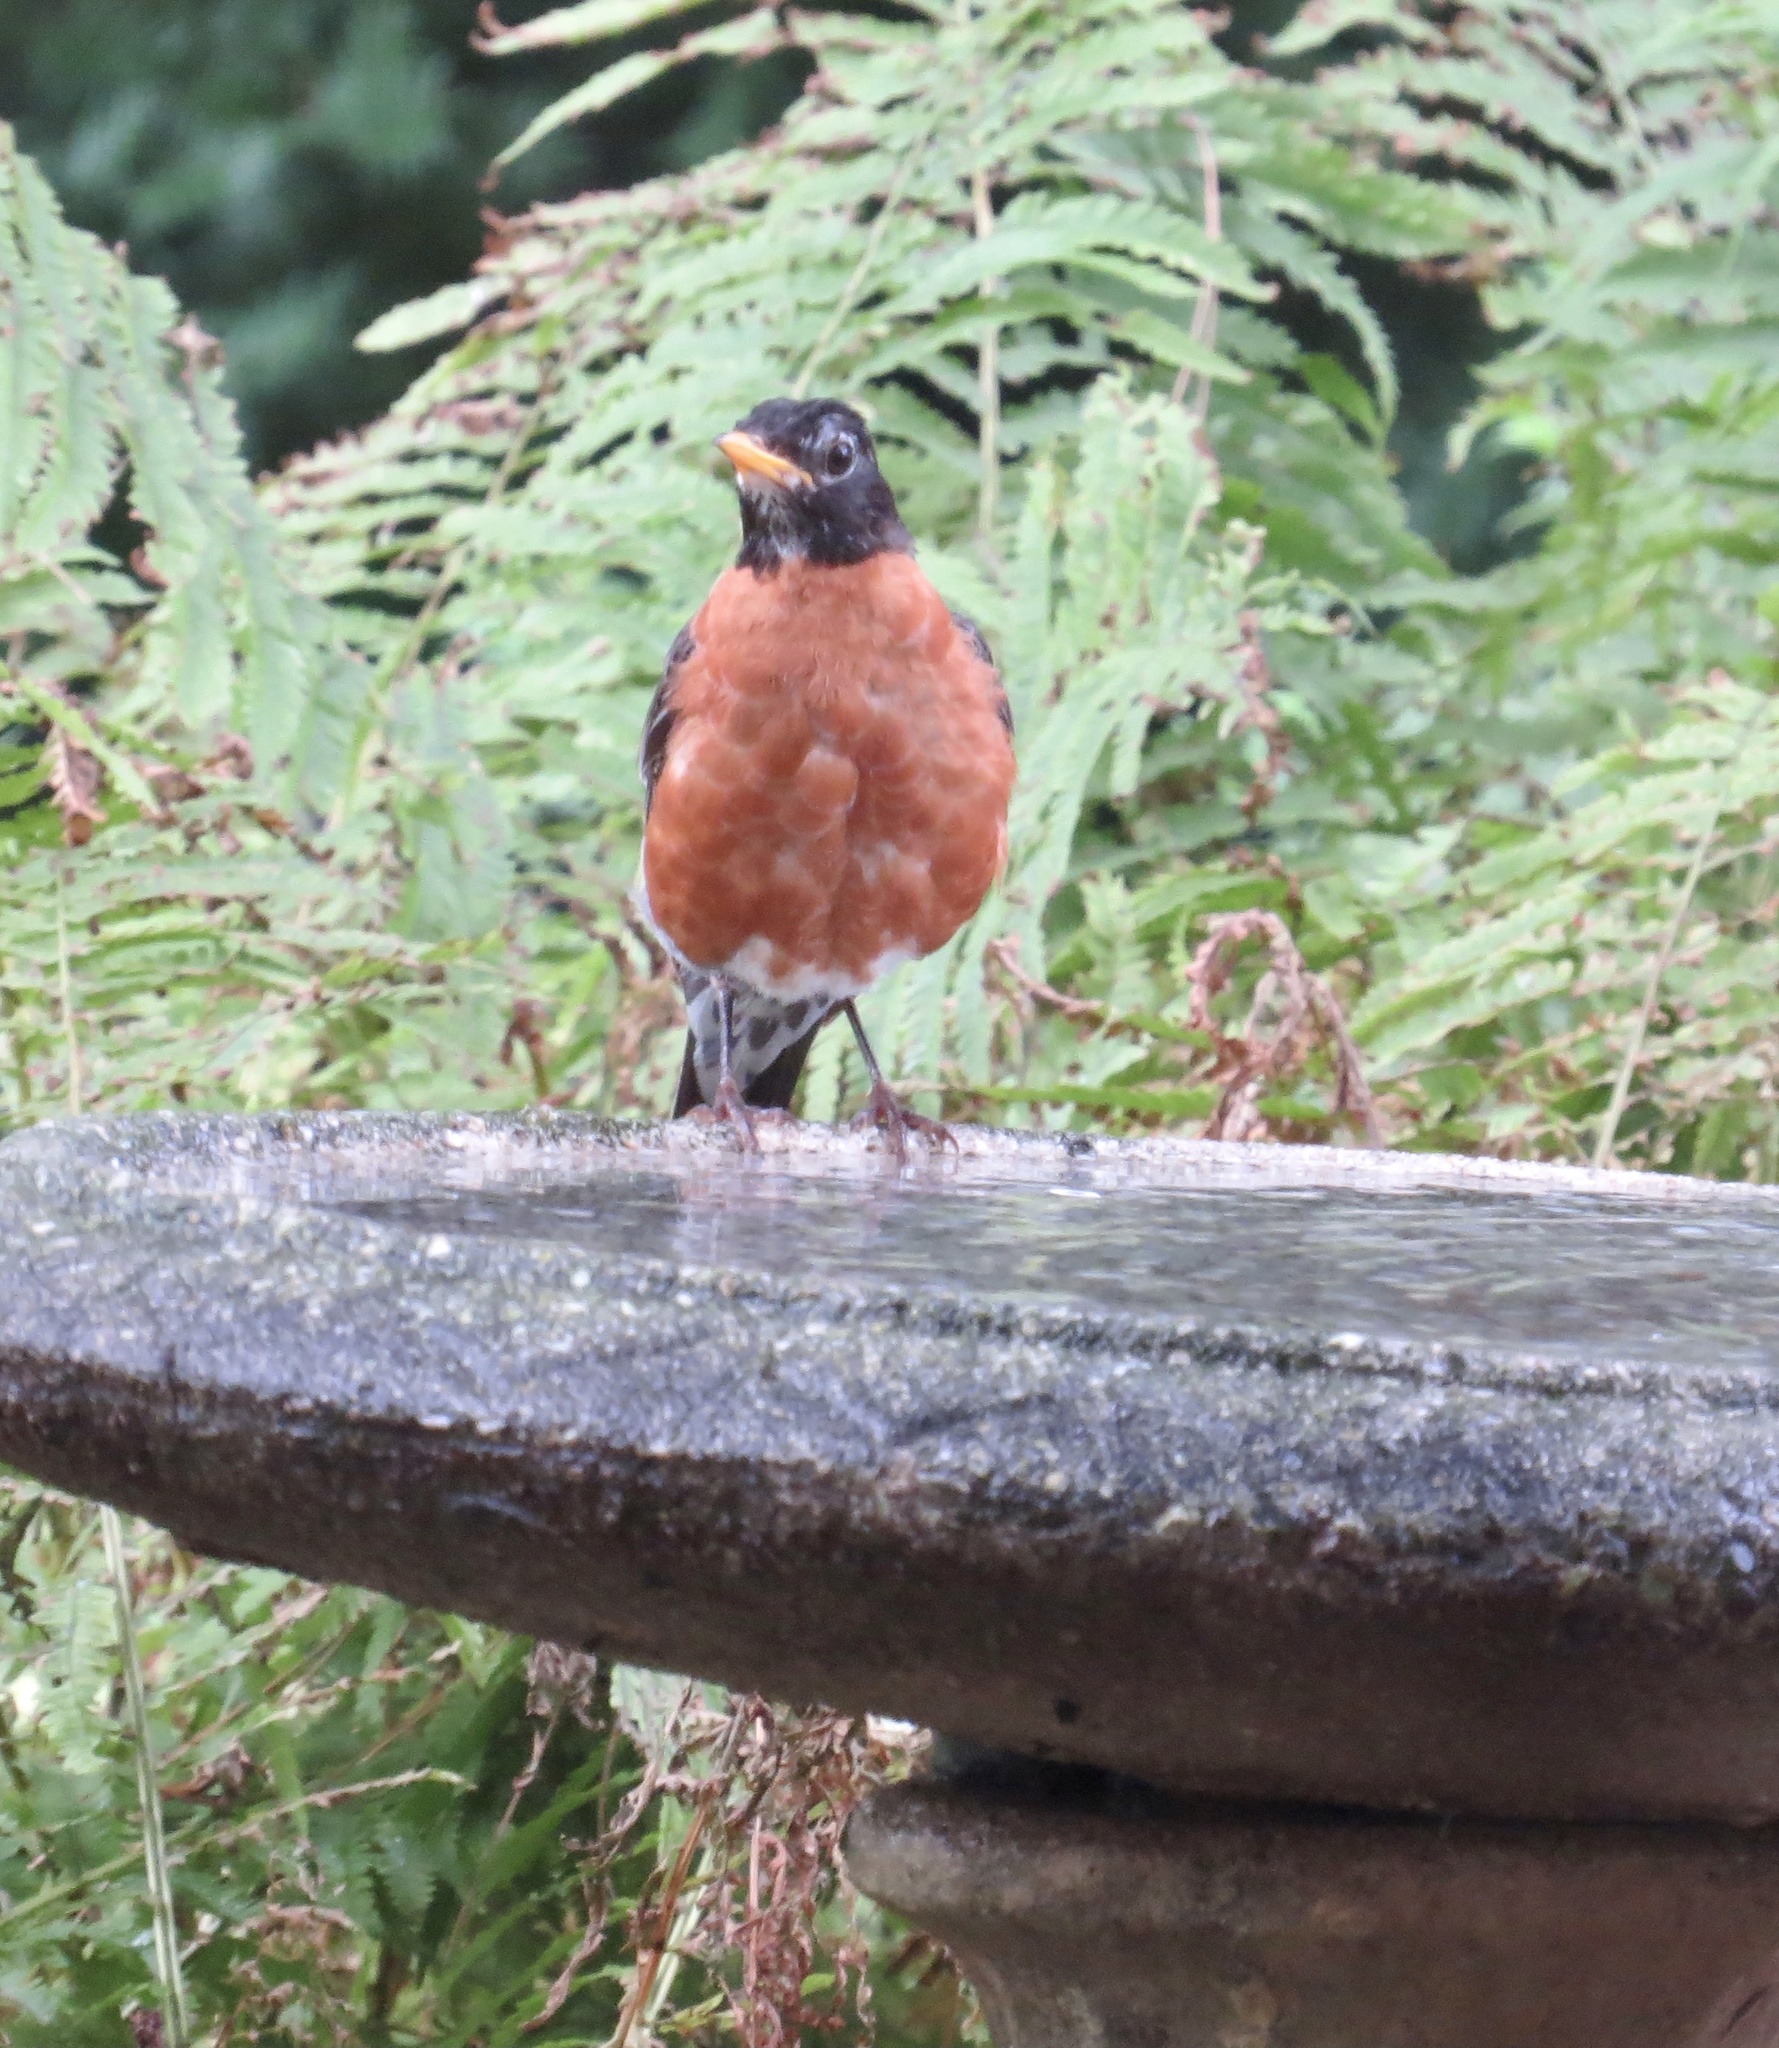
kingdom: Animalia
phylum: Chordata
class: Aves
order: Passeriformes
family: Turdidae
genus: Turdus
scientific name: Turdus migratorius
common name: American robin
